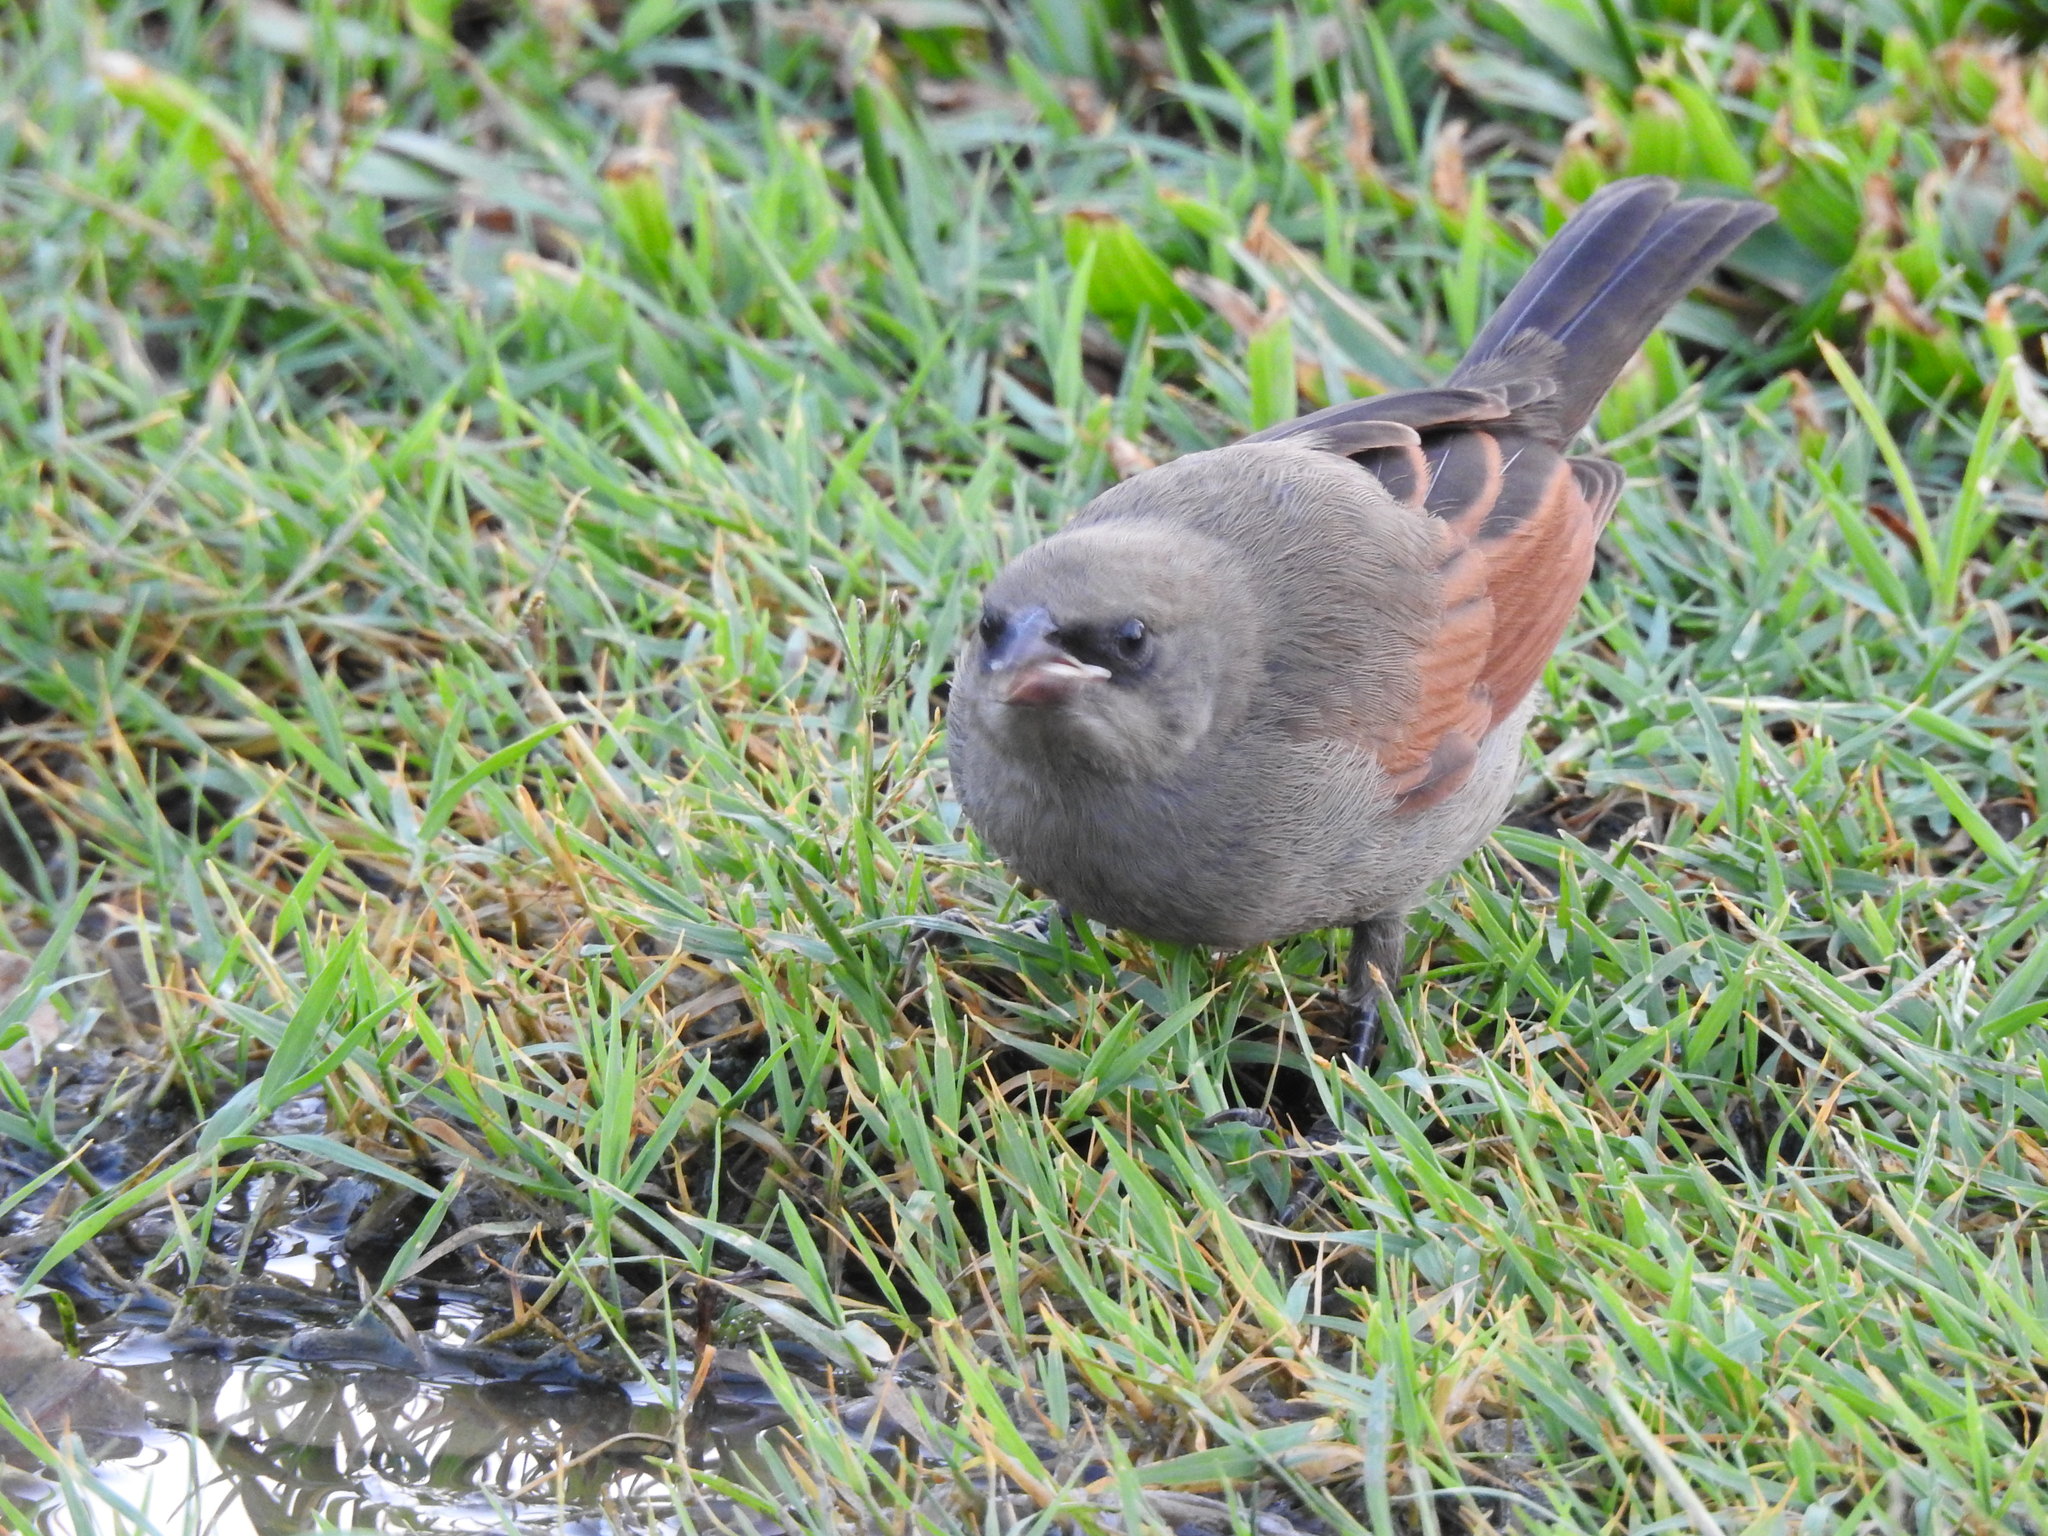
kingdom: Animalia
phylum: Chordata
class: Aves
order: Passeriformes
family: Icteridae
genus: Agelaioides
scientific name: Agelaioides badius
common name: Baywing
